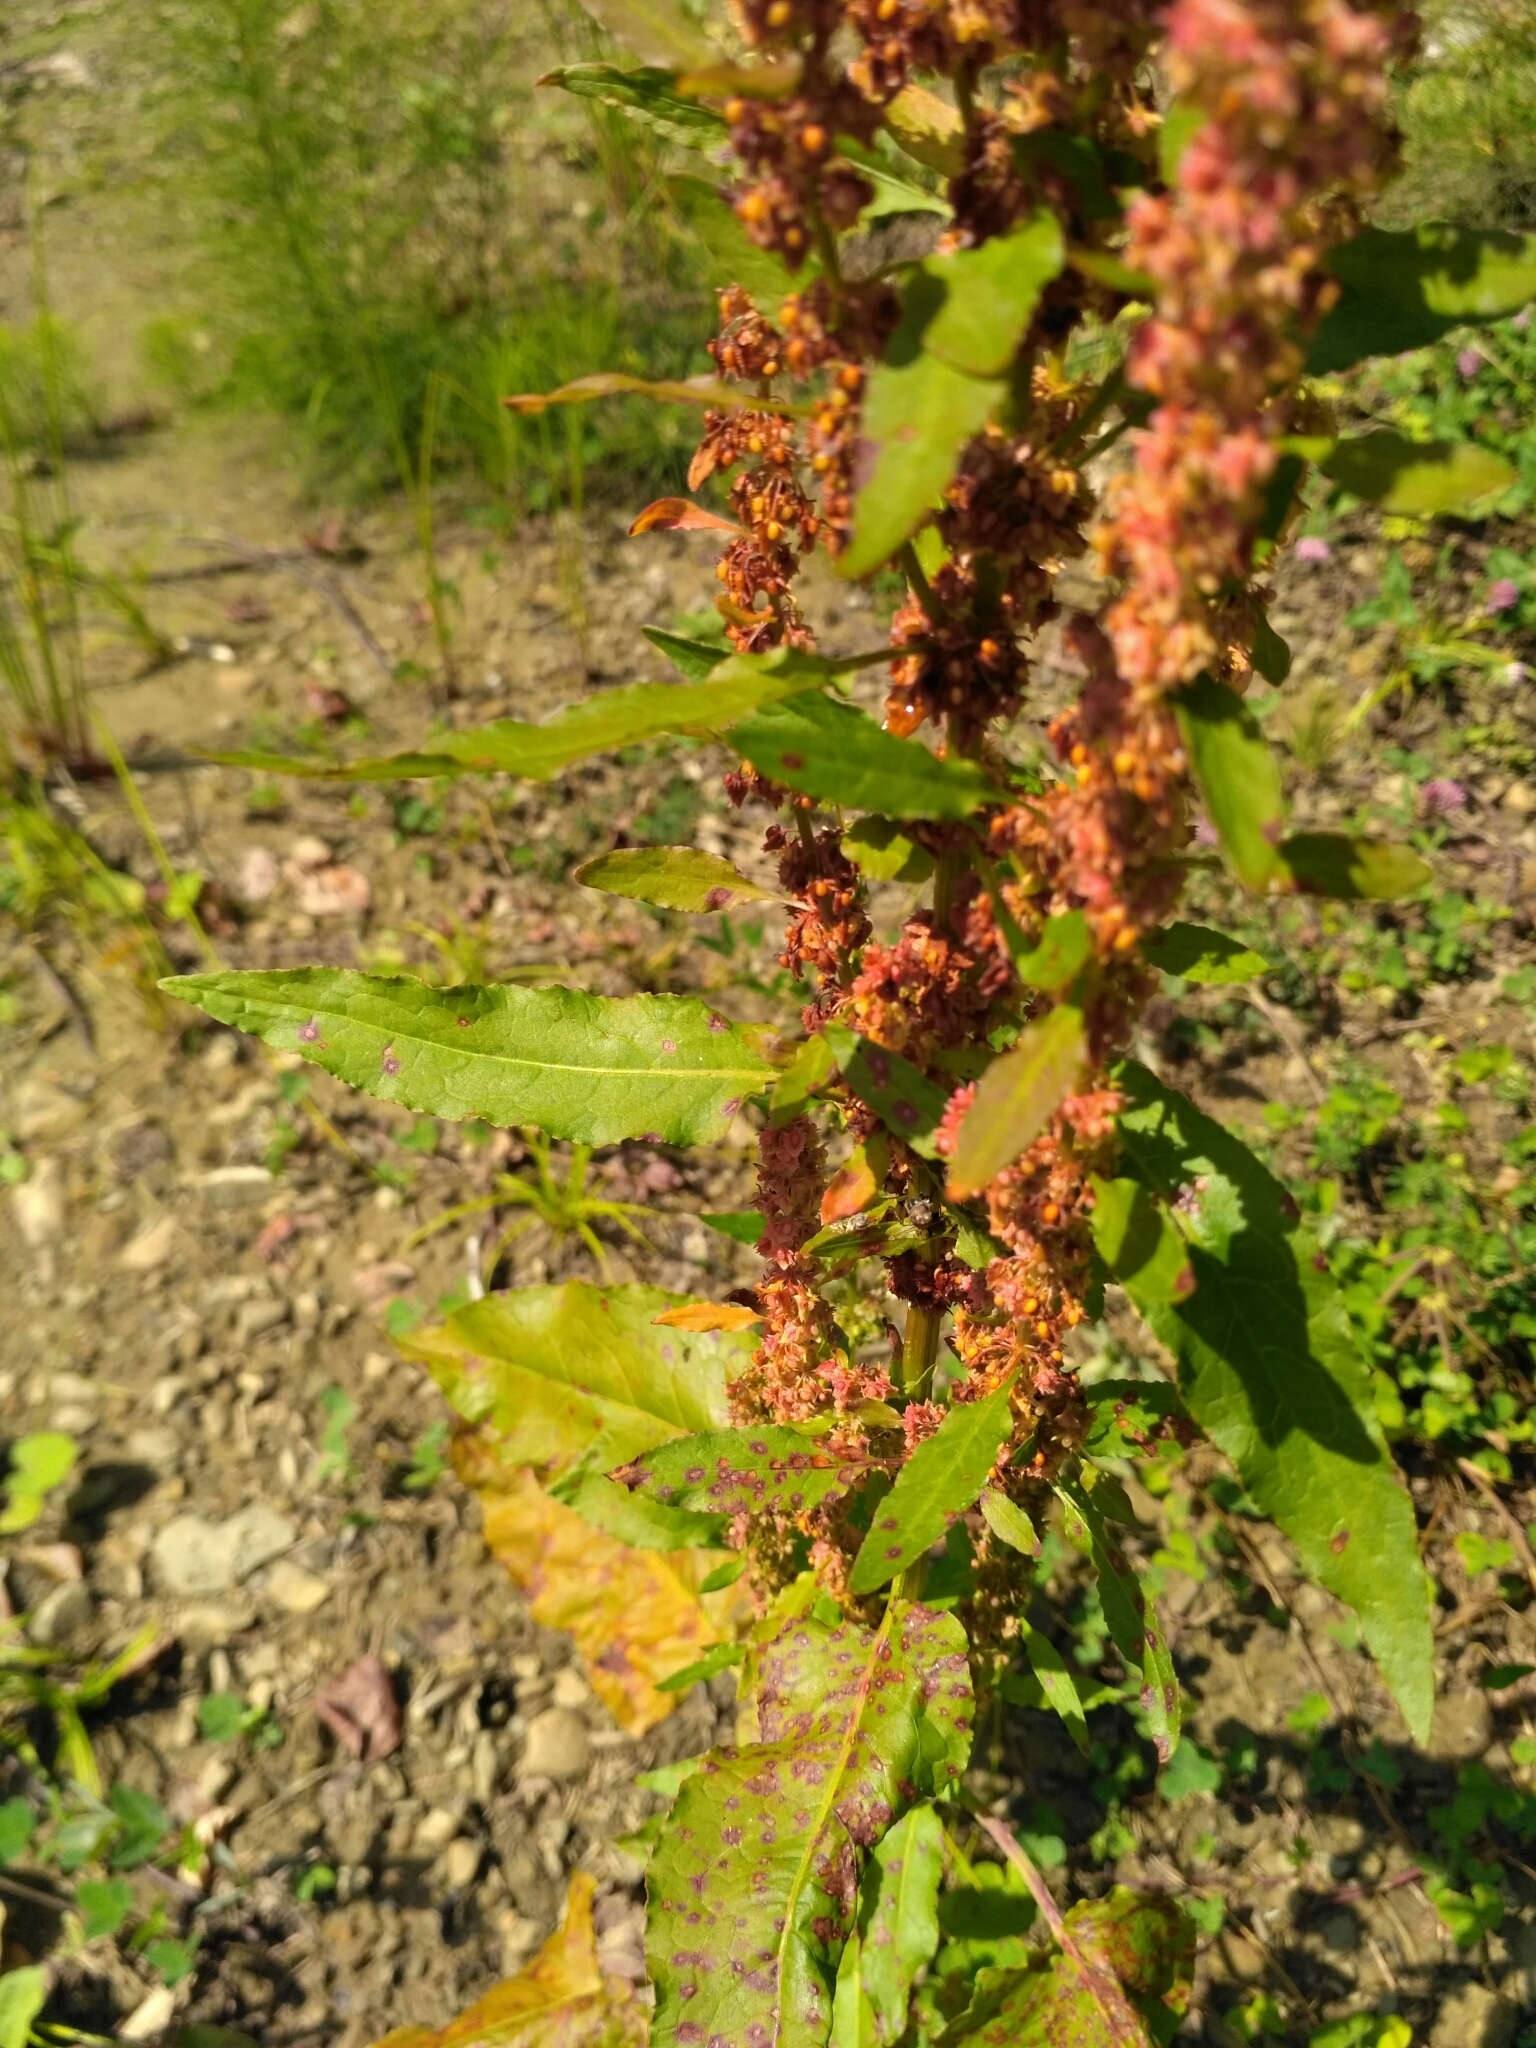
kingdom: Plantae
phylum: Tracheophyta
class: Magnoliopsida
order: Caryophyllales
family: Polygonaceae
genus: Rumex
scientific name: Rumex obtusifolius
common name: Bitter dock
